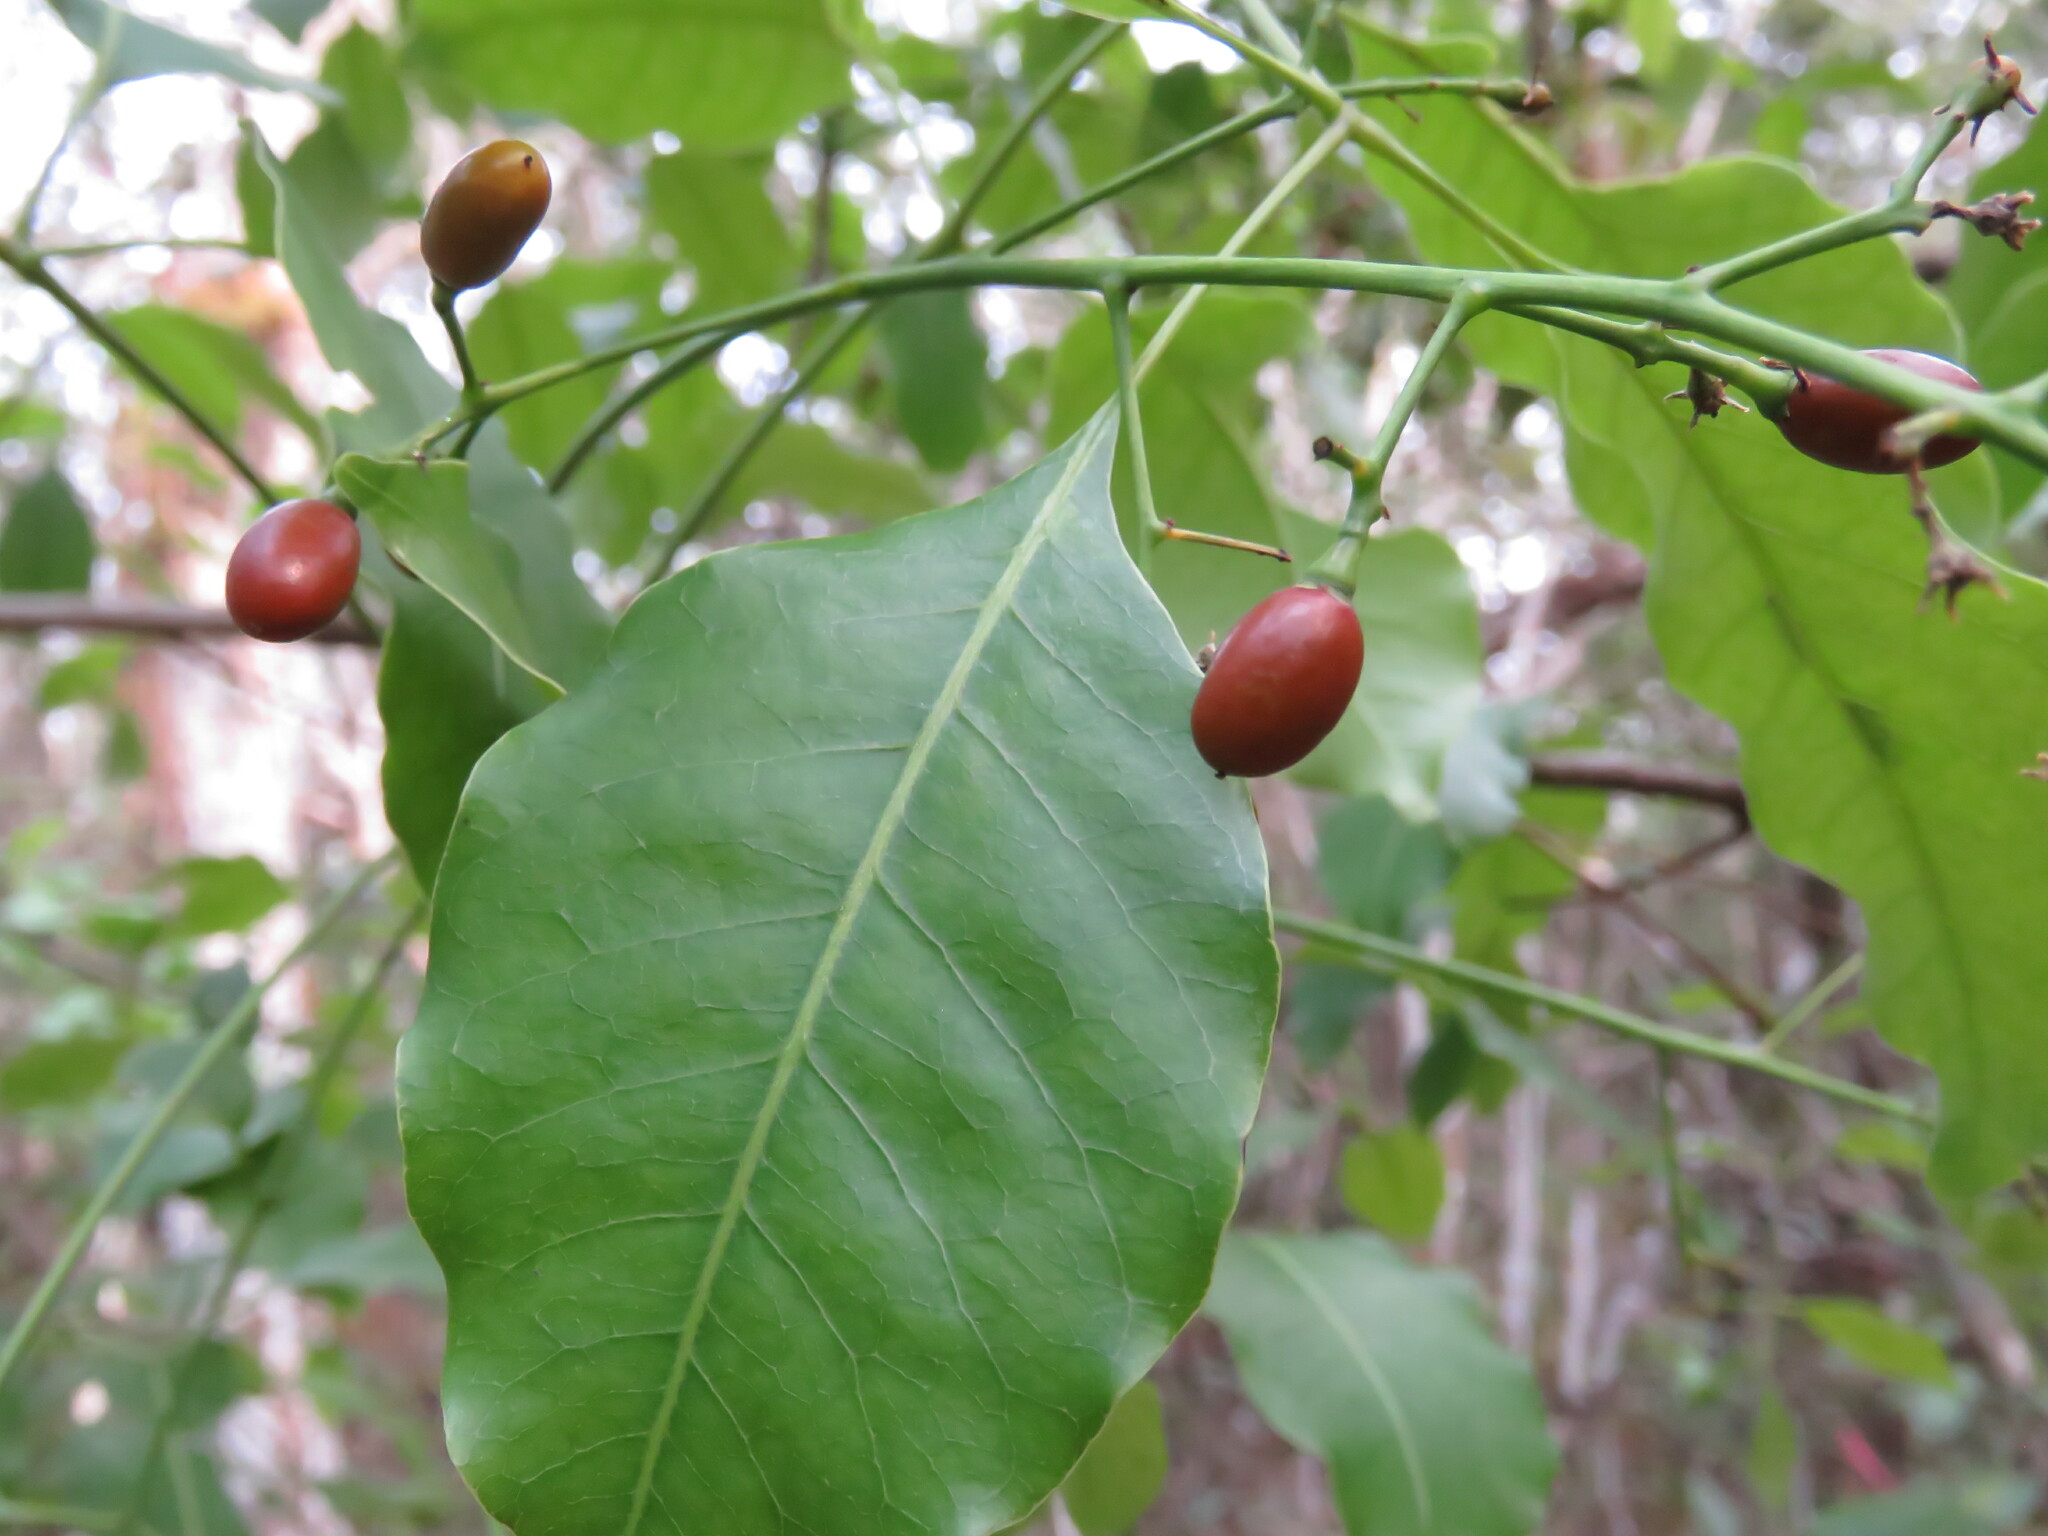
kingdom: Plantae
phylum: Tracheophyta
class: Magnoliopsida
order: Sapindales
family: Anacardiaceae
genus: Metopium
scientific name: Metopium brownei
